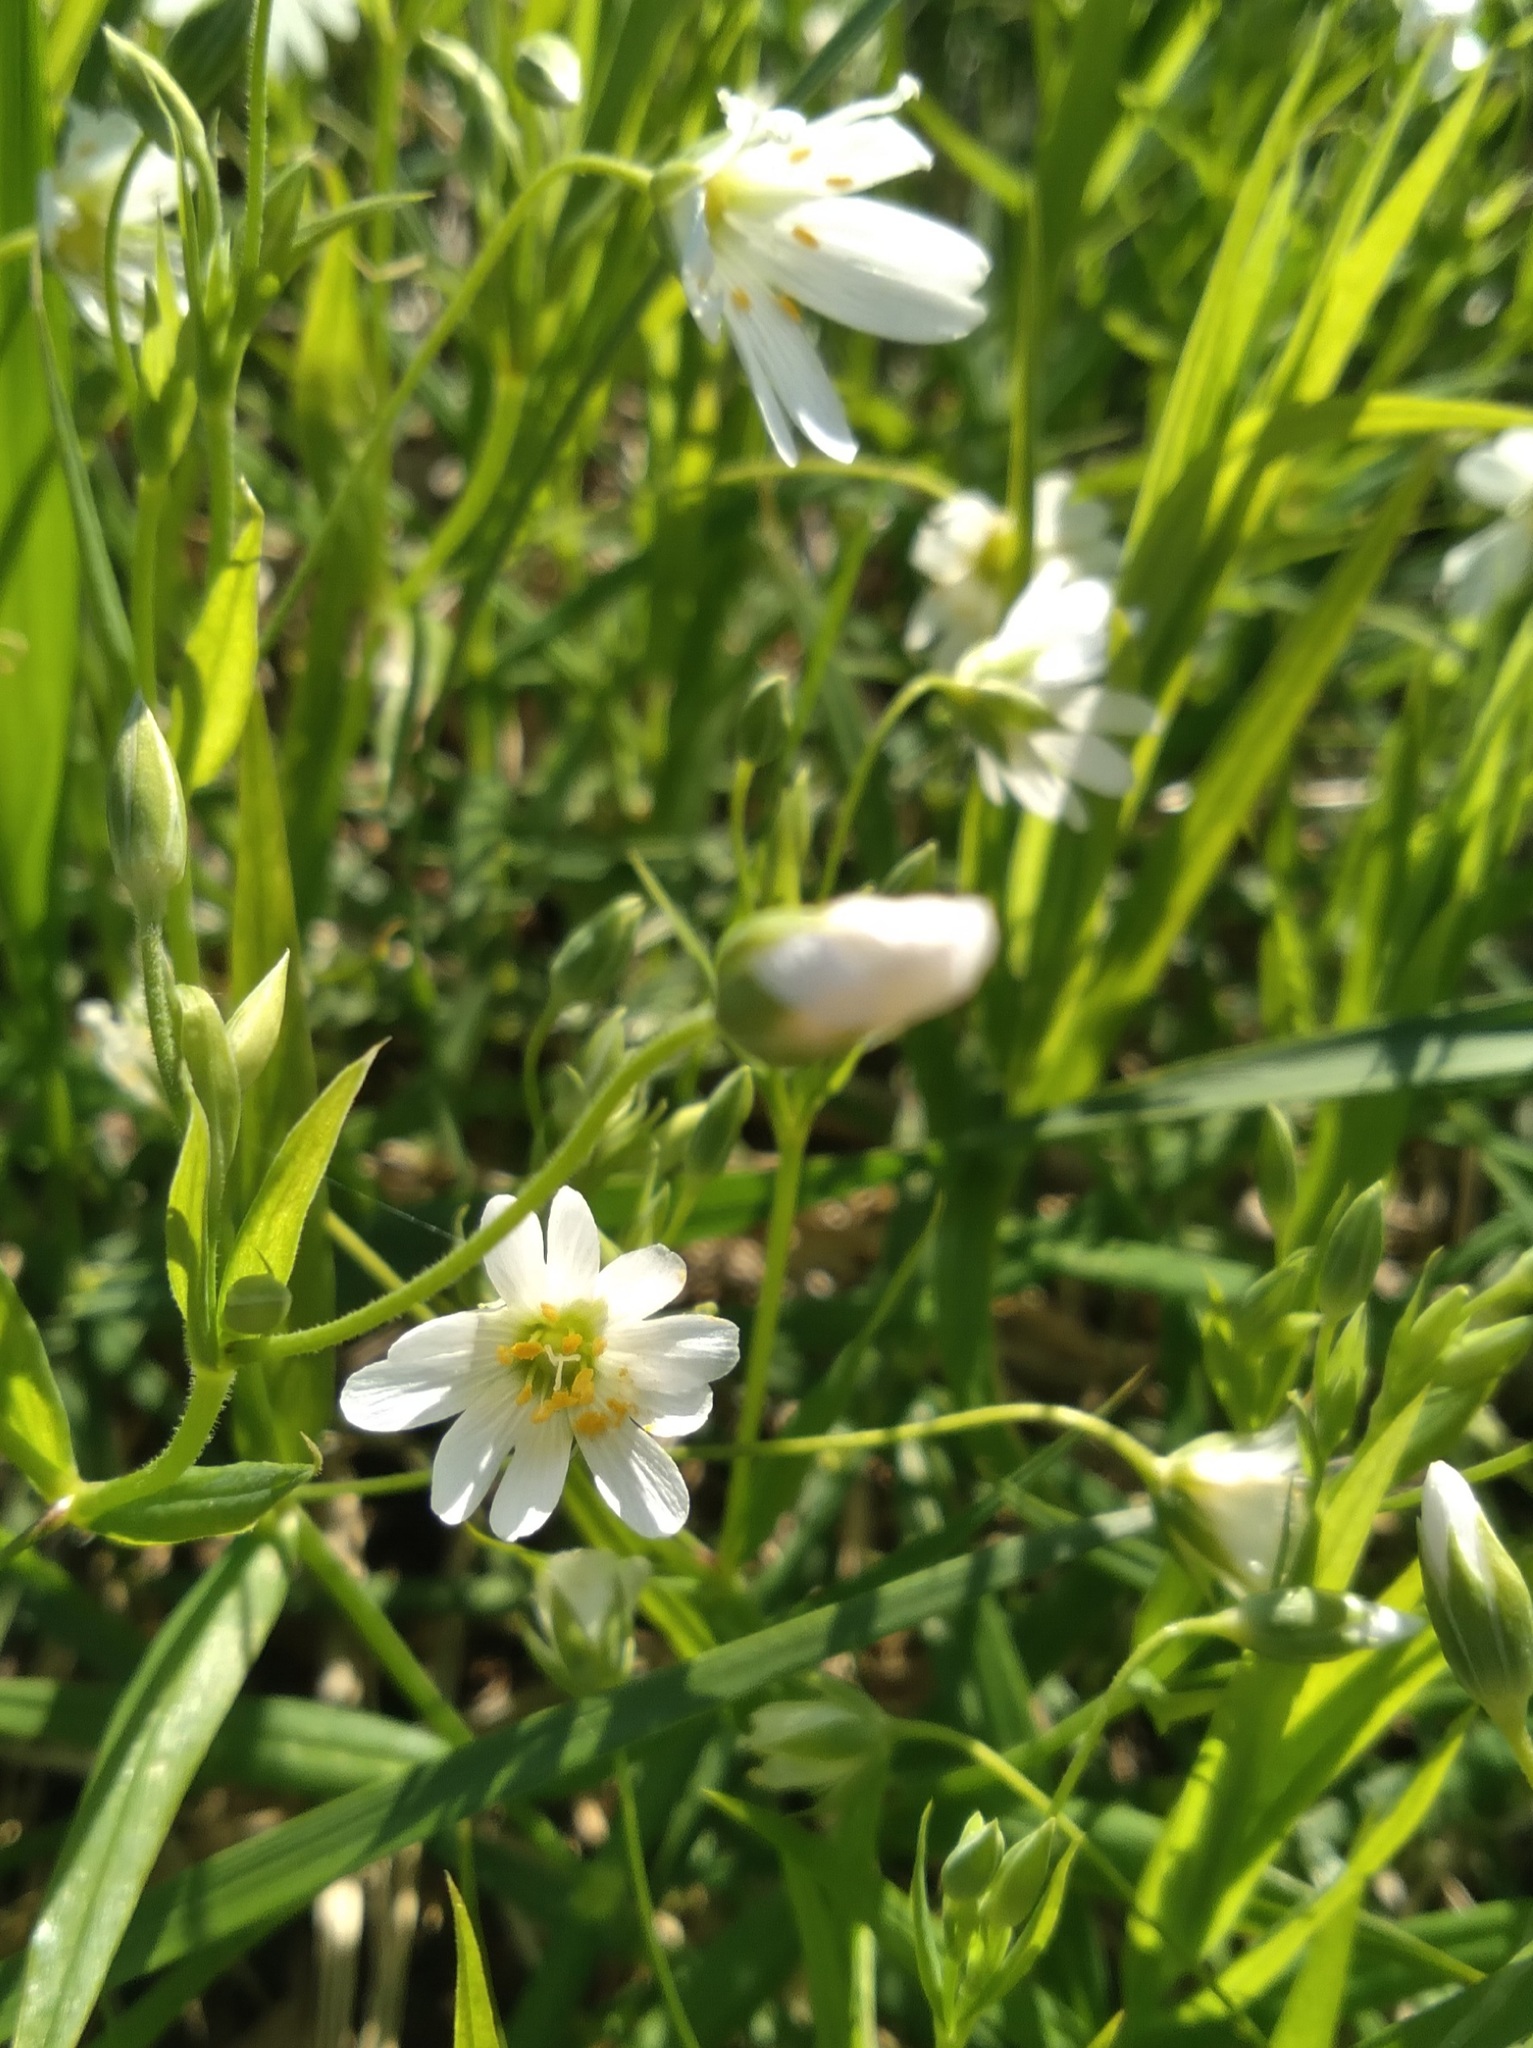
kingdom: Plantae
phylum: Tracheophyta
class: Magnoliopsida
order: Caryophyllales
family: Caryophyllaceae
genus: Rabelera
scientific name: Rabelera holostea
